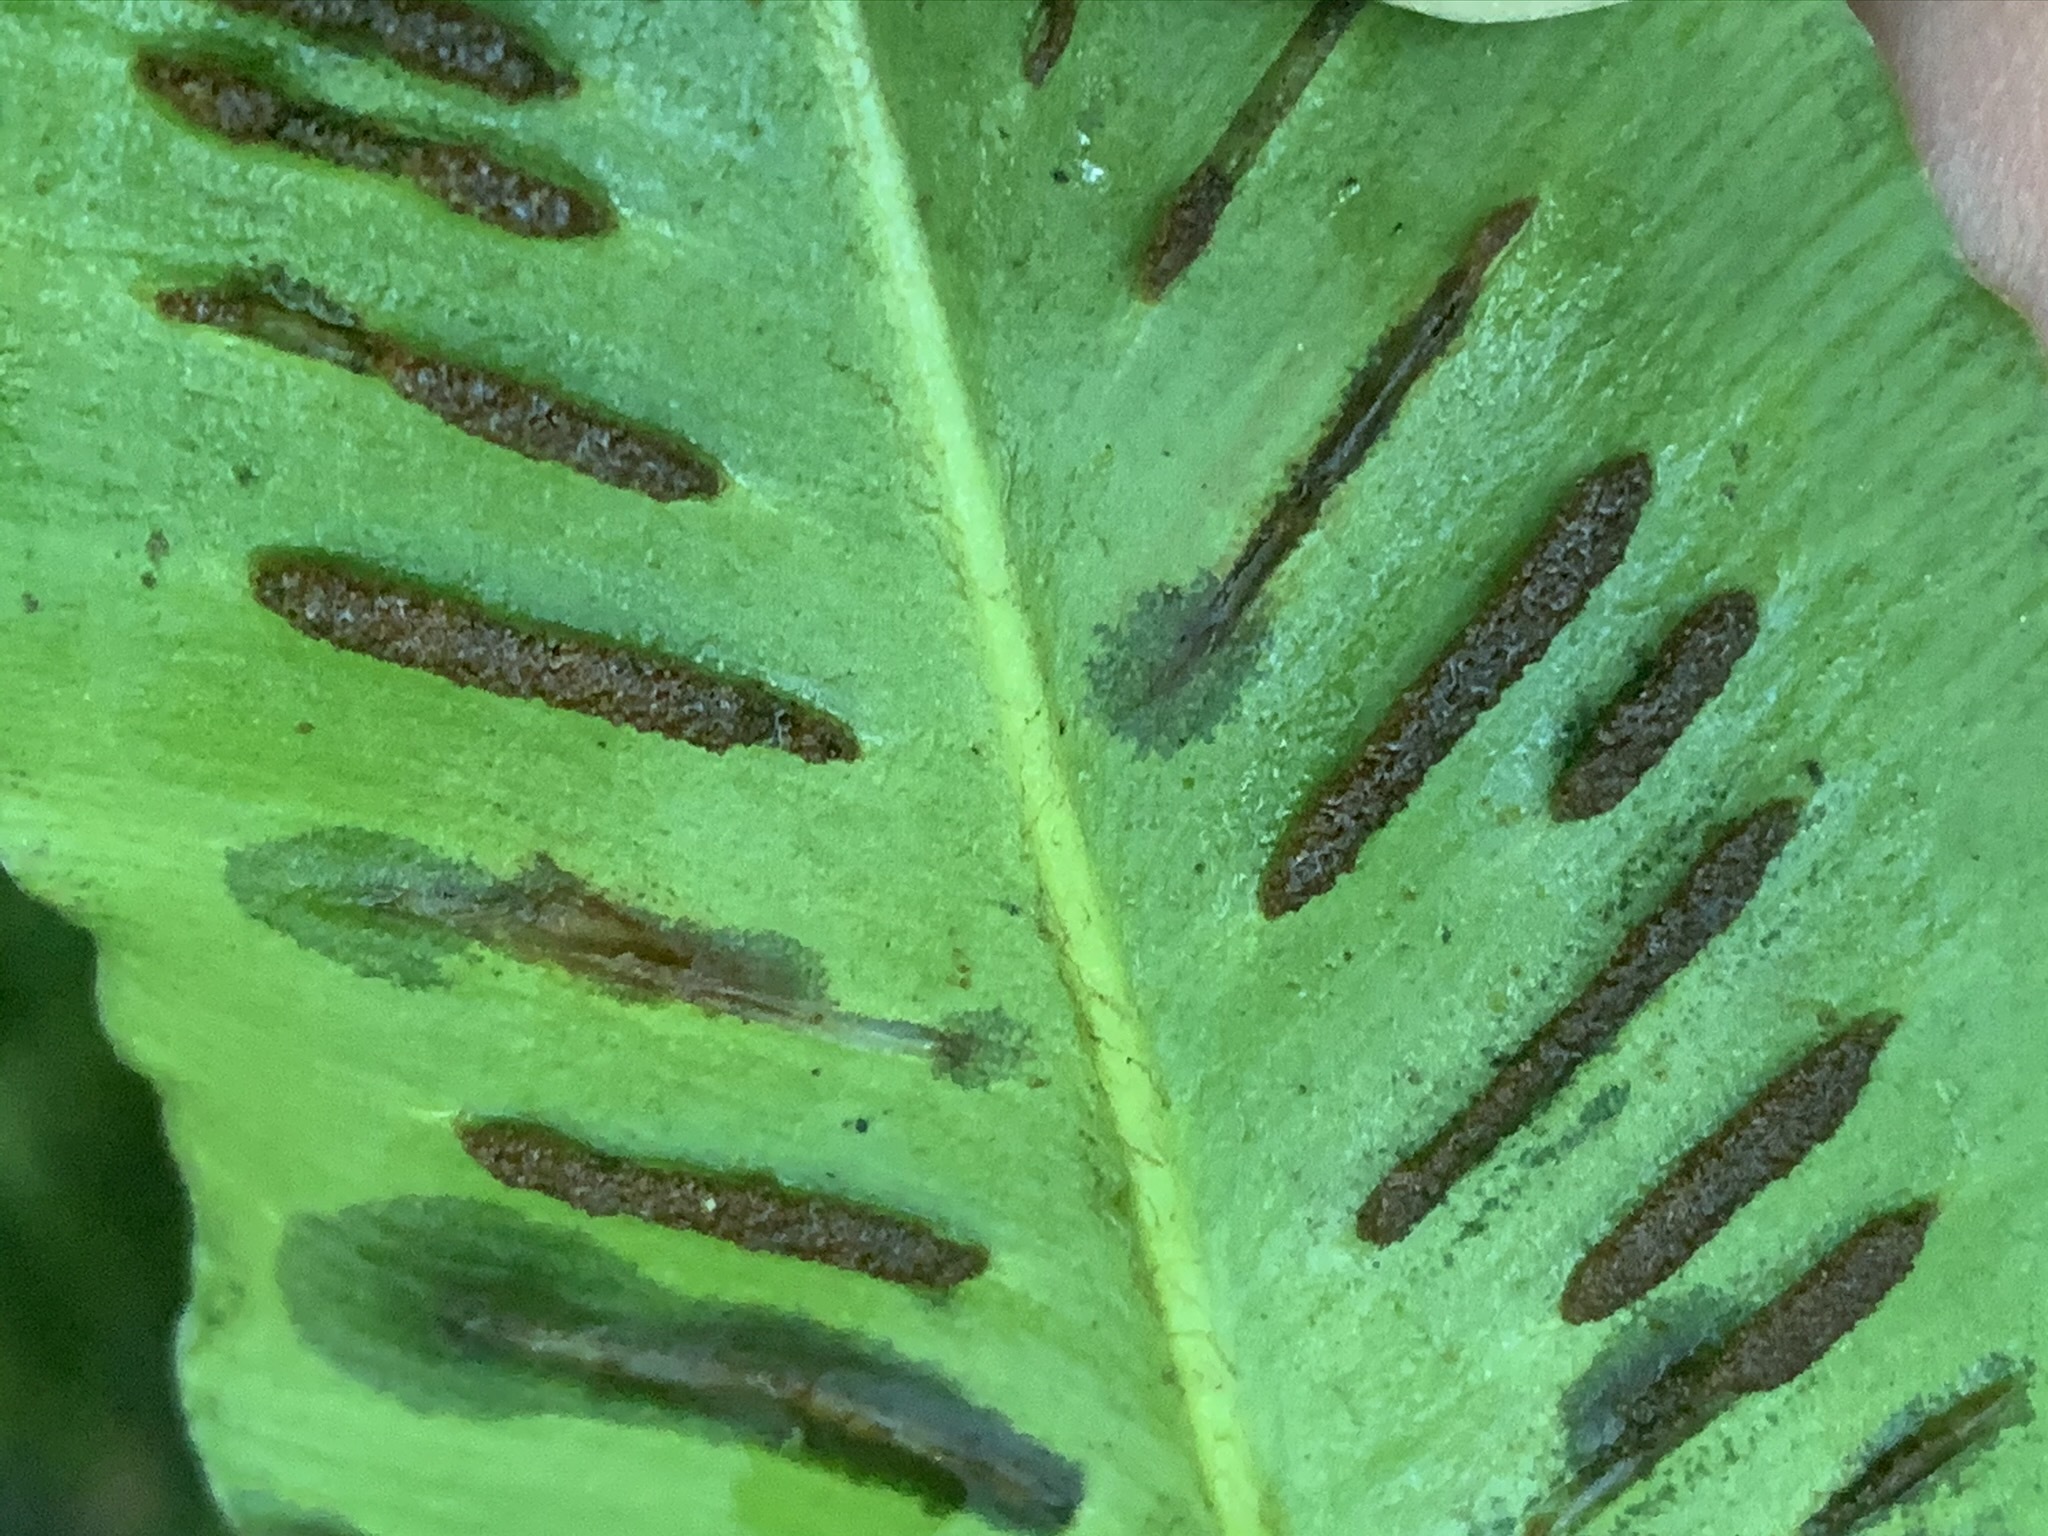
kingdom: Plantae
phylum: Tracheophyta
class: Polypodiopsida
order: Polypodiales
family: Aspleniaceae
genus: Asplenium
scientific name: Asplenium scolopendrium
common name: Hart's-tongue fern
